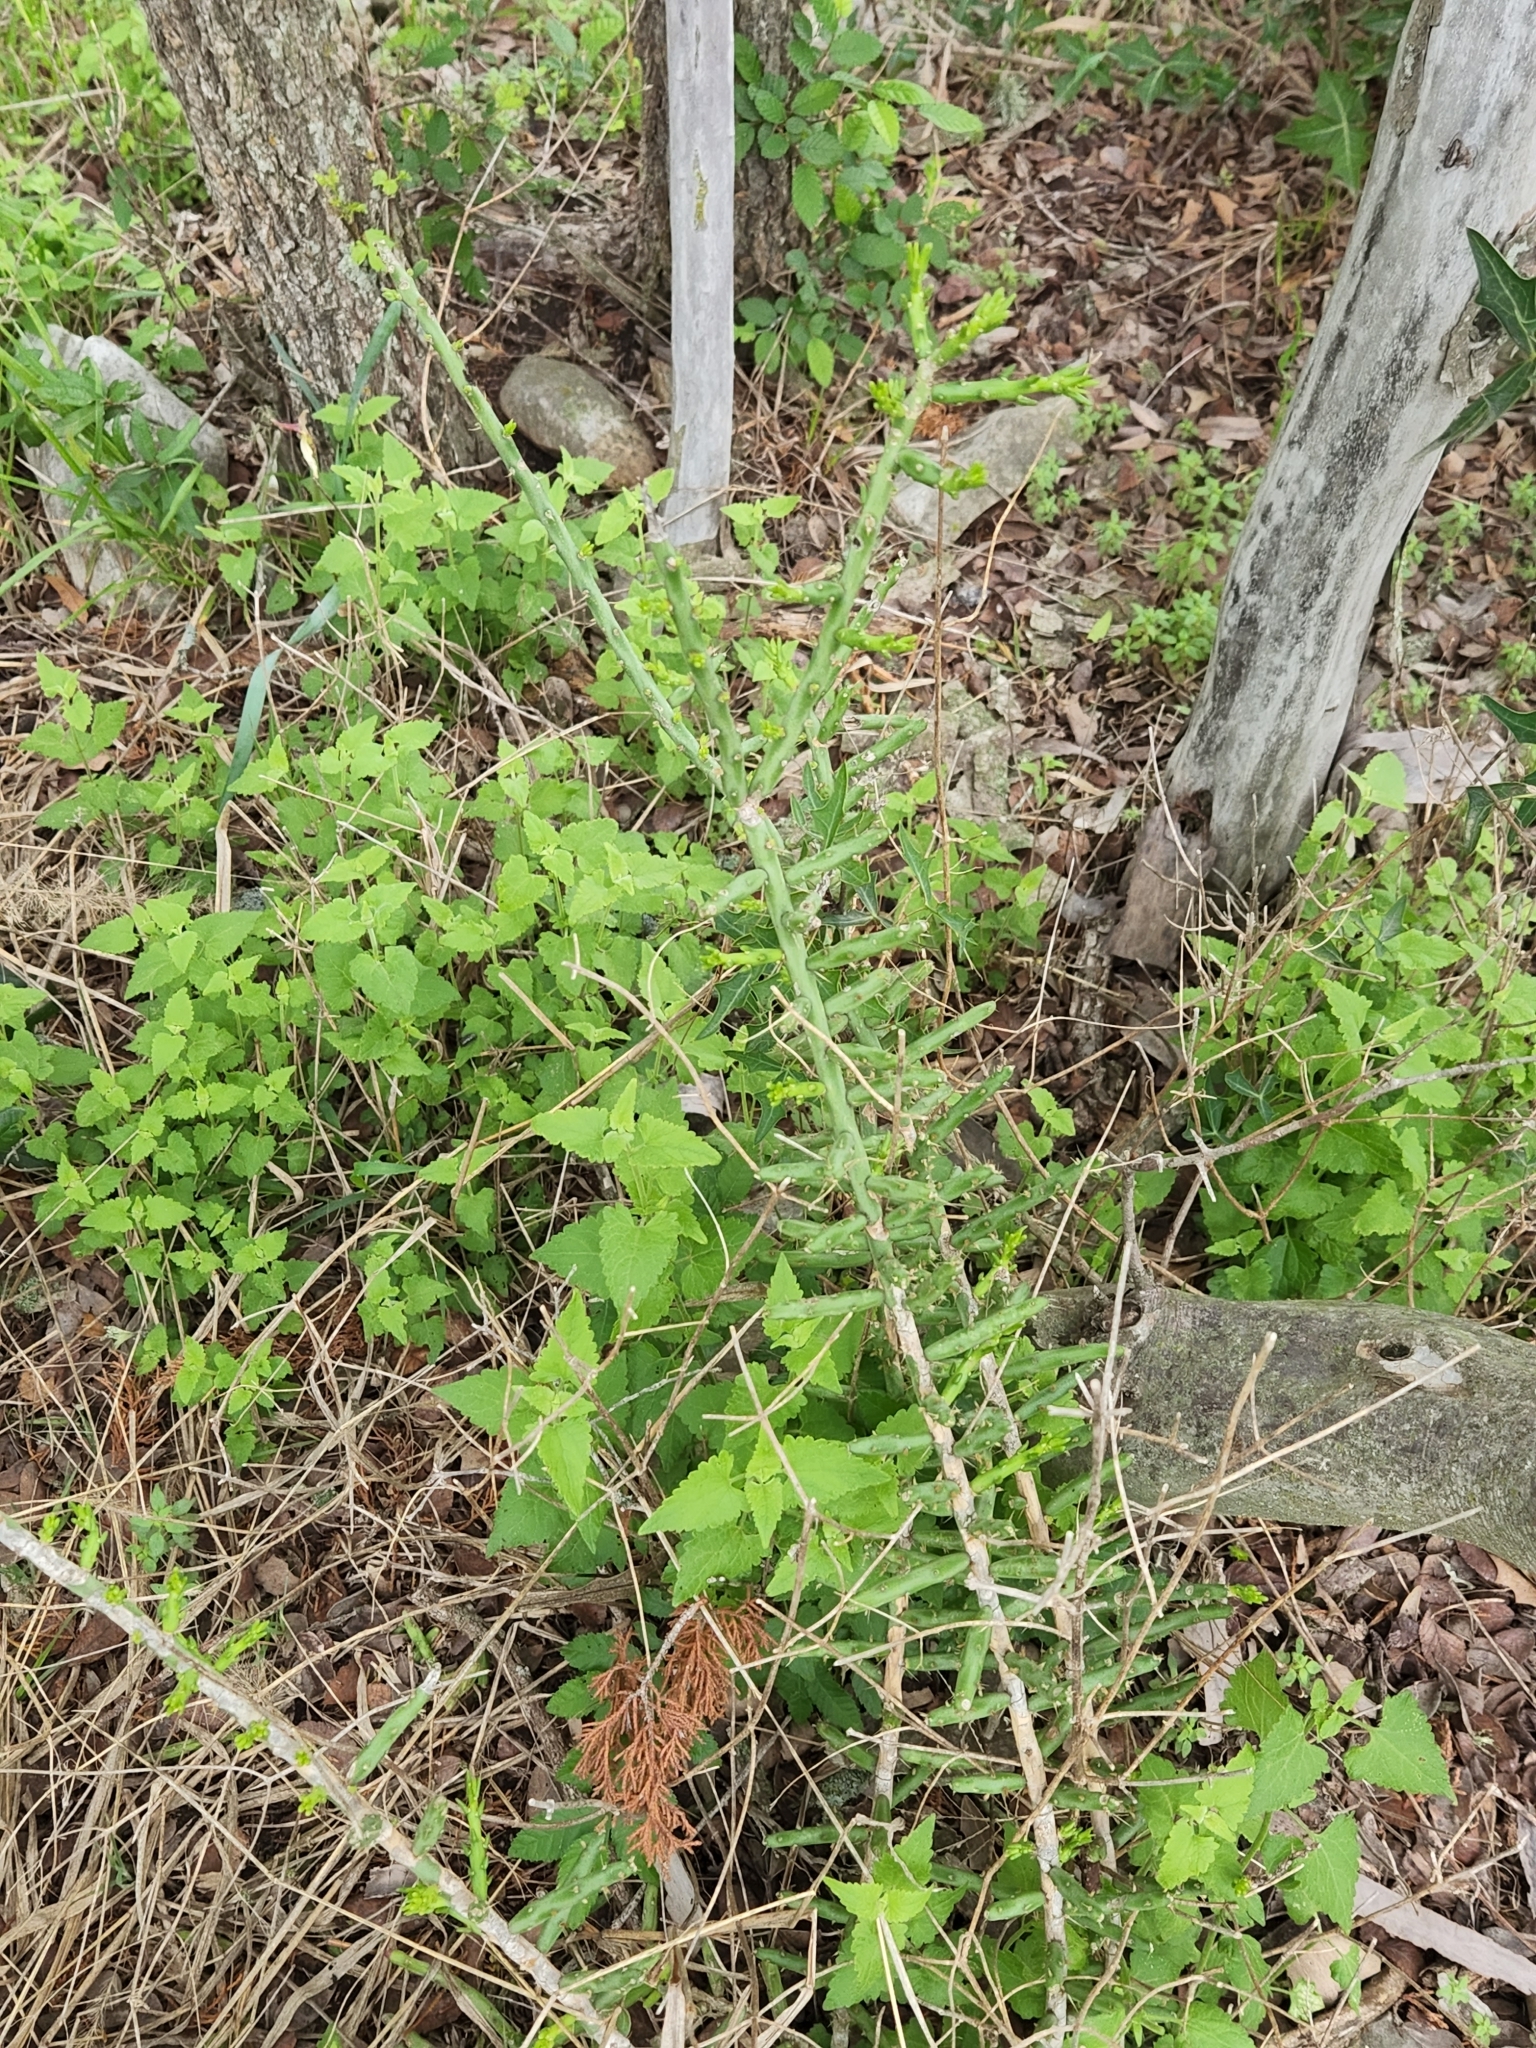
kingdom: Plantae
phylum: Tracheophyta
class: Magnoliopsida
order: Caryophyllales
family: Cactaceae
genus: Cylindropuntia
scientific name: Cylindropuntia leptocaulis
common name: Christmas cactus
